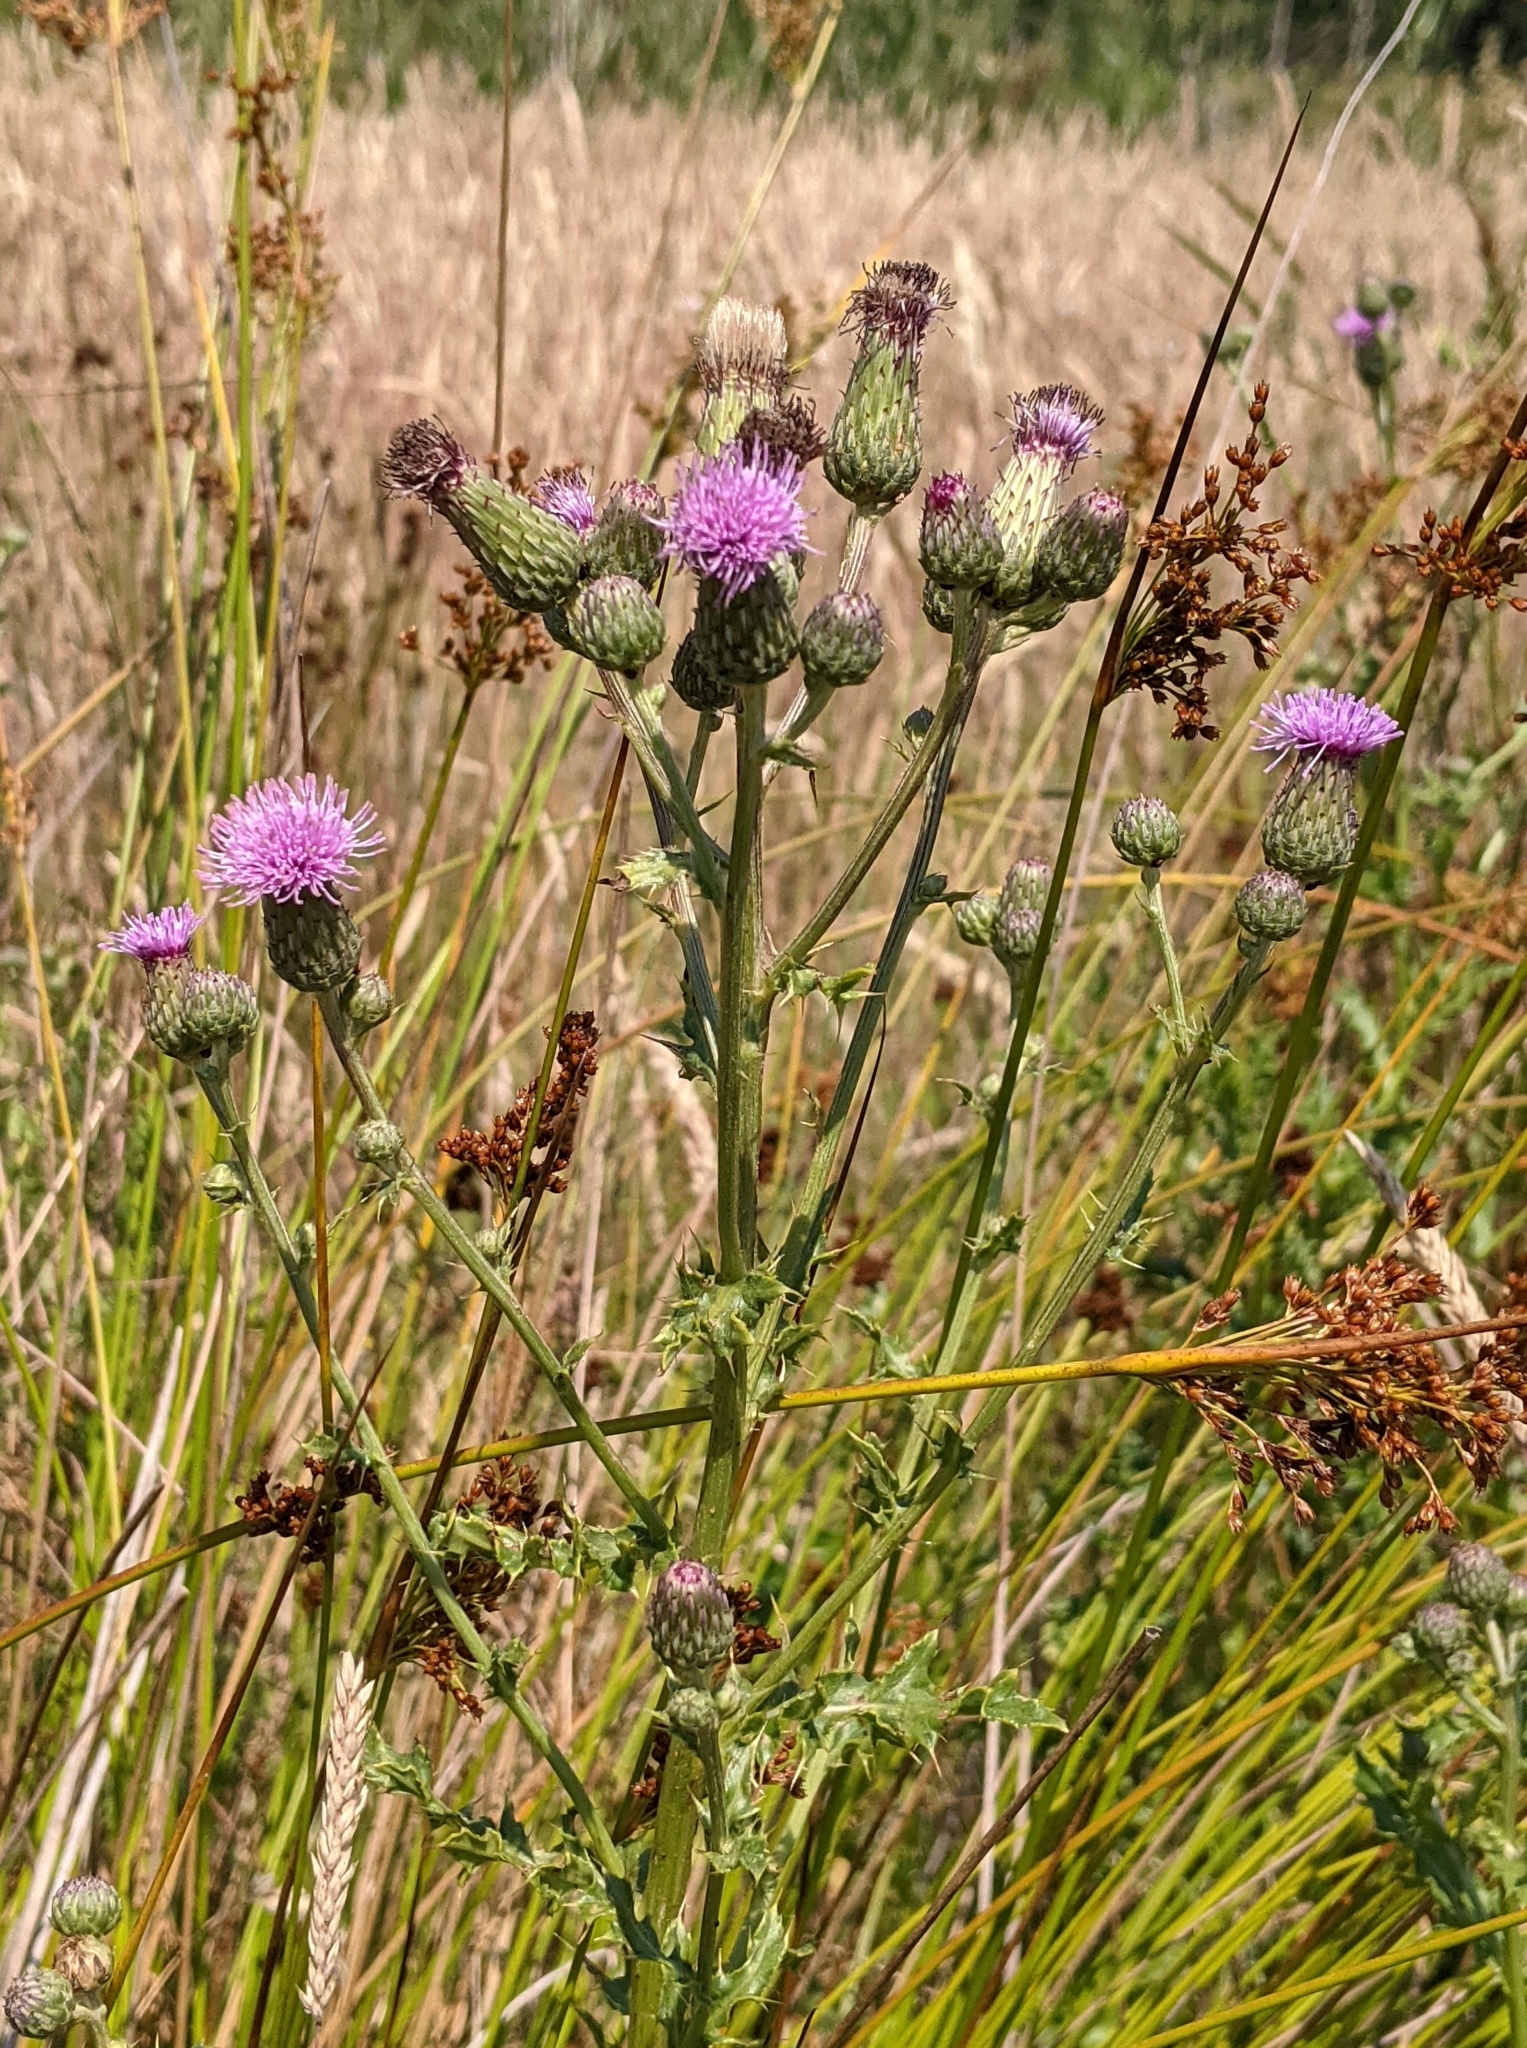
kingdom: Plantae
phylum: Tracheophyta
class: Magnoliopsida
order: Asterales
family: Asteraceae
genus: Cirsium
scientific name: Cirsium arvense
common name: Creeping thistle
